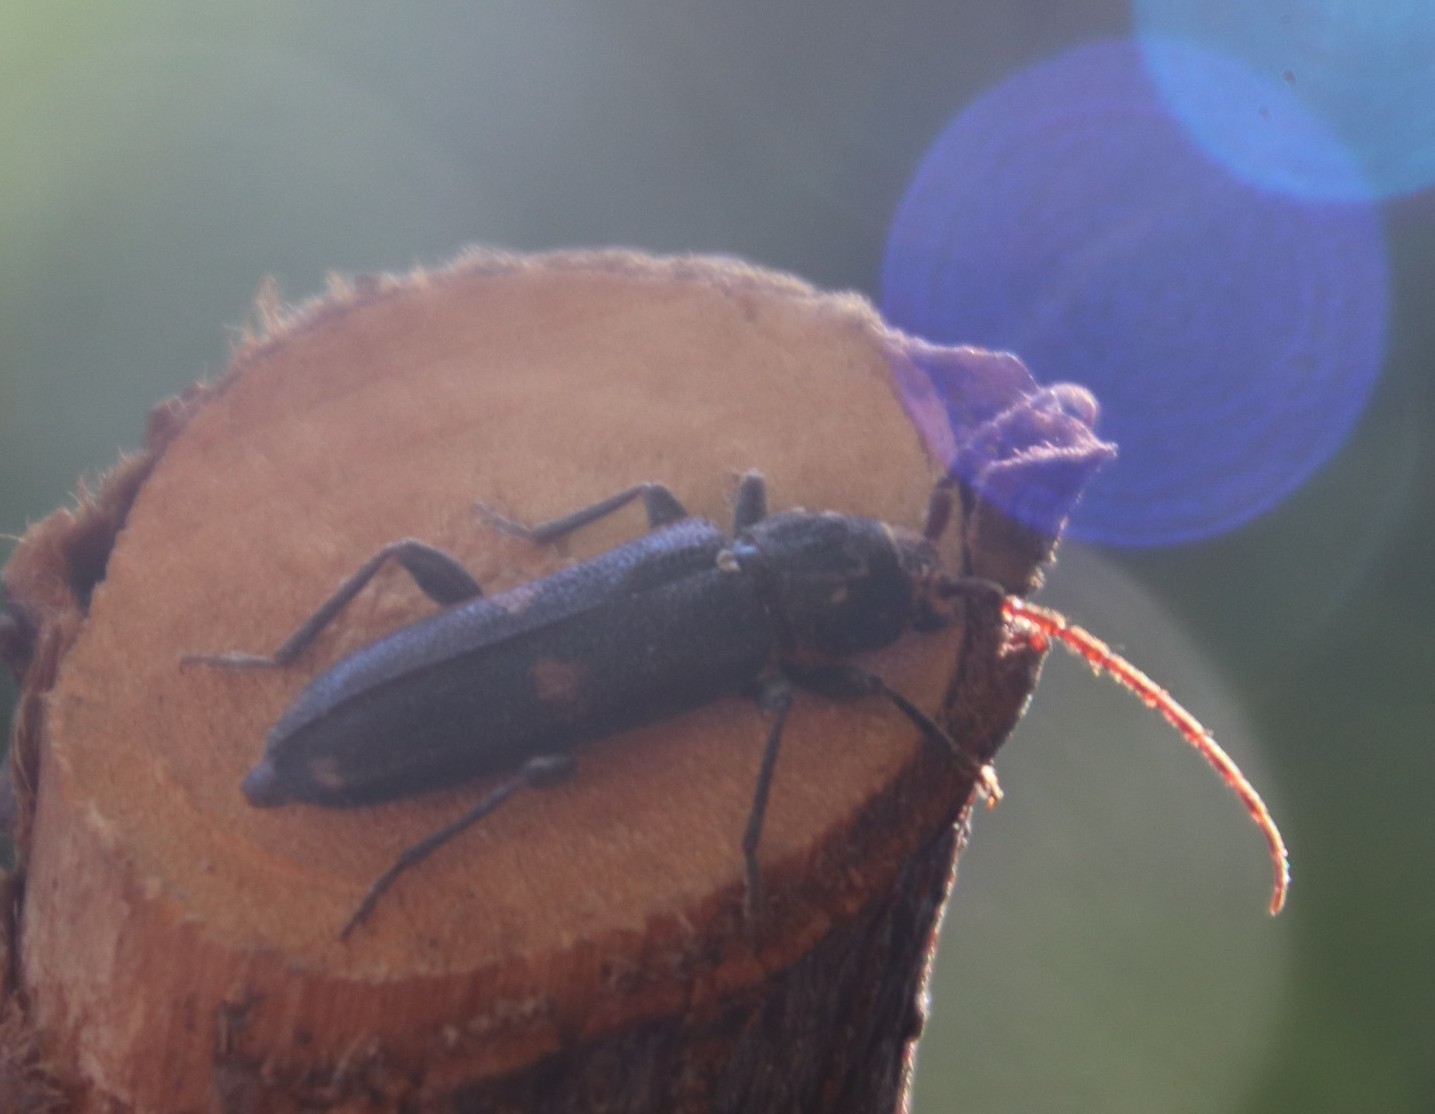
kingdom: Animalia
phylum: Arthropoda
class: Insecta
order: Coleoptera
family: Cerambycidae
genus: Zamium
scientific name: Zamium bimaculatum
